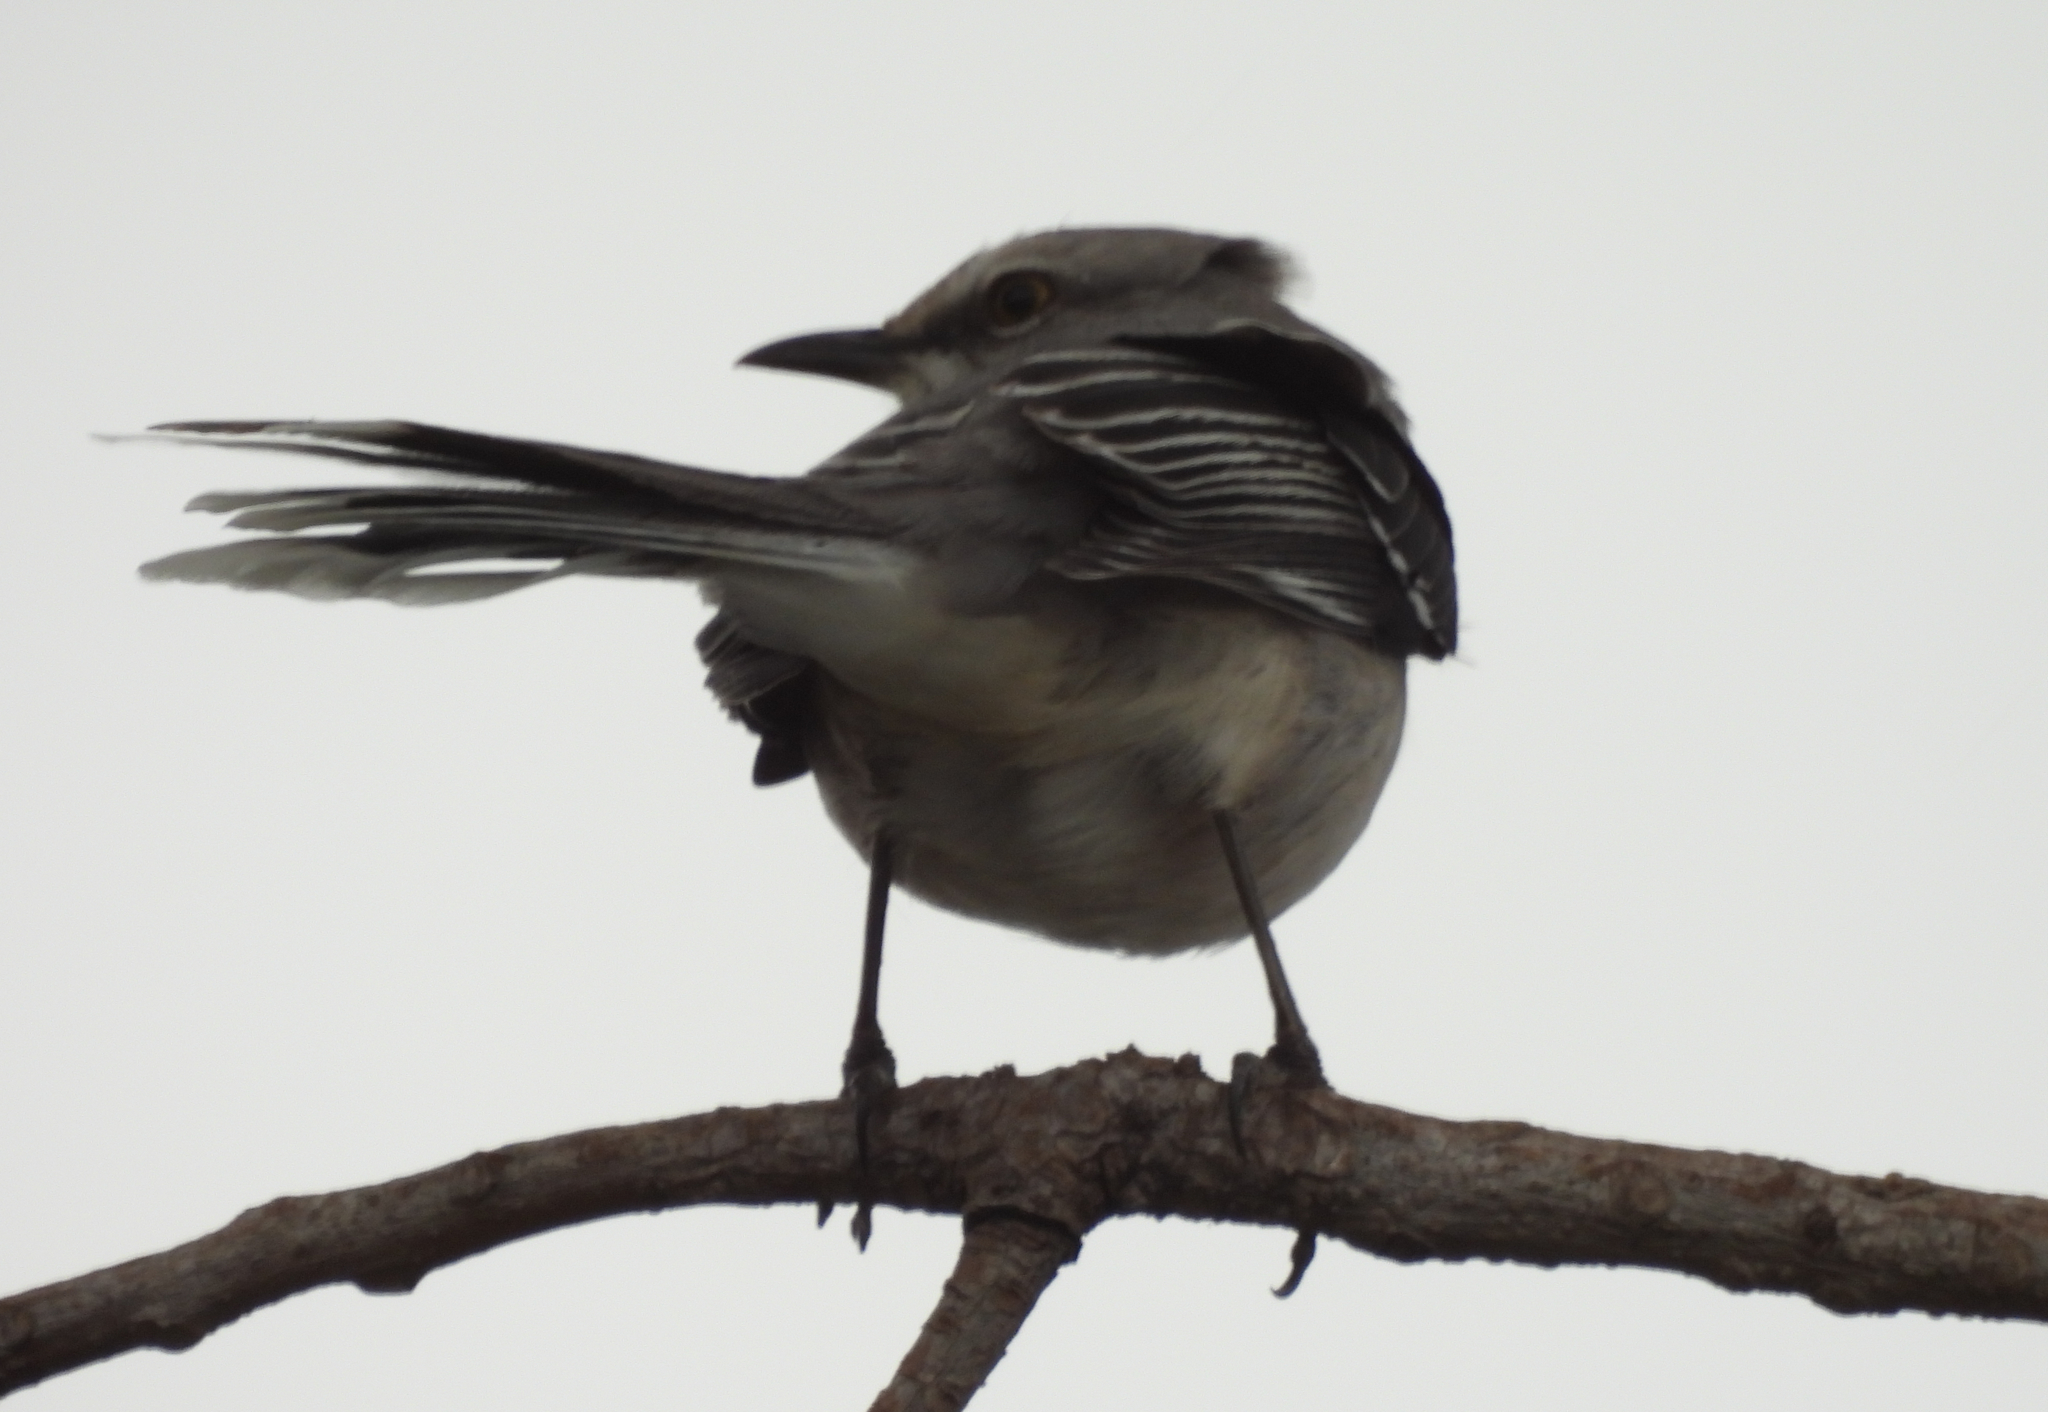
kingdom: Animalia
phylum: Chordata
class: Aves
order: Passeriformes
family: Mimidae
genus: Mimus
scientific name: Mimus gilvus
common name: Tropical mockingbird
